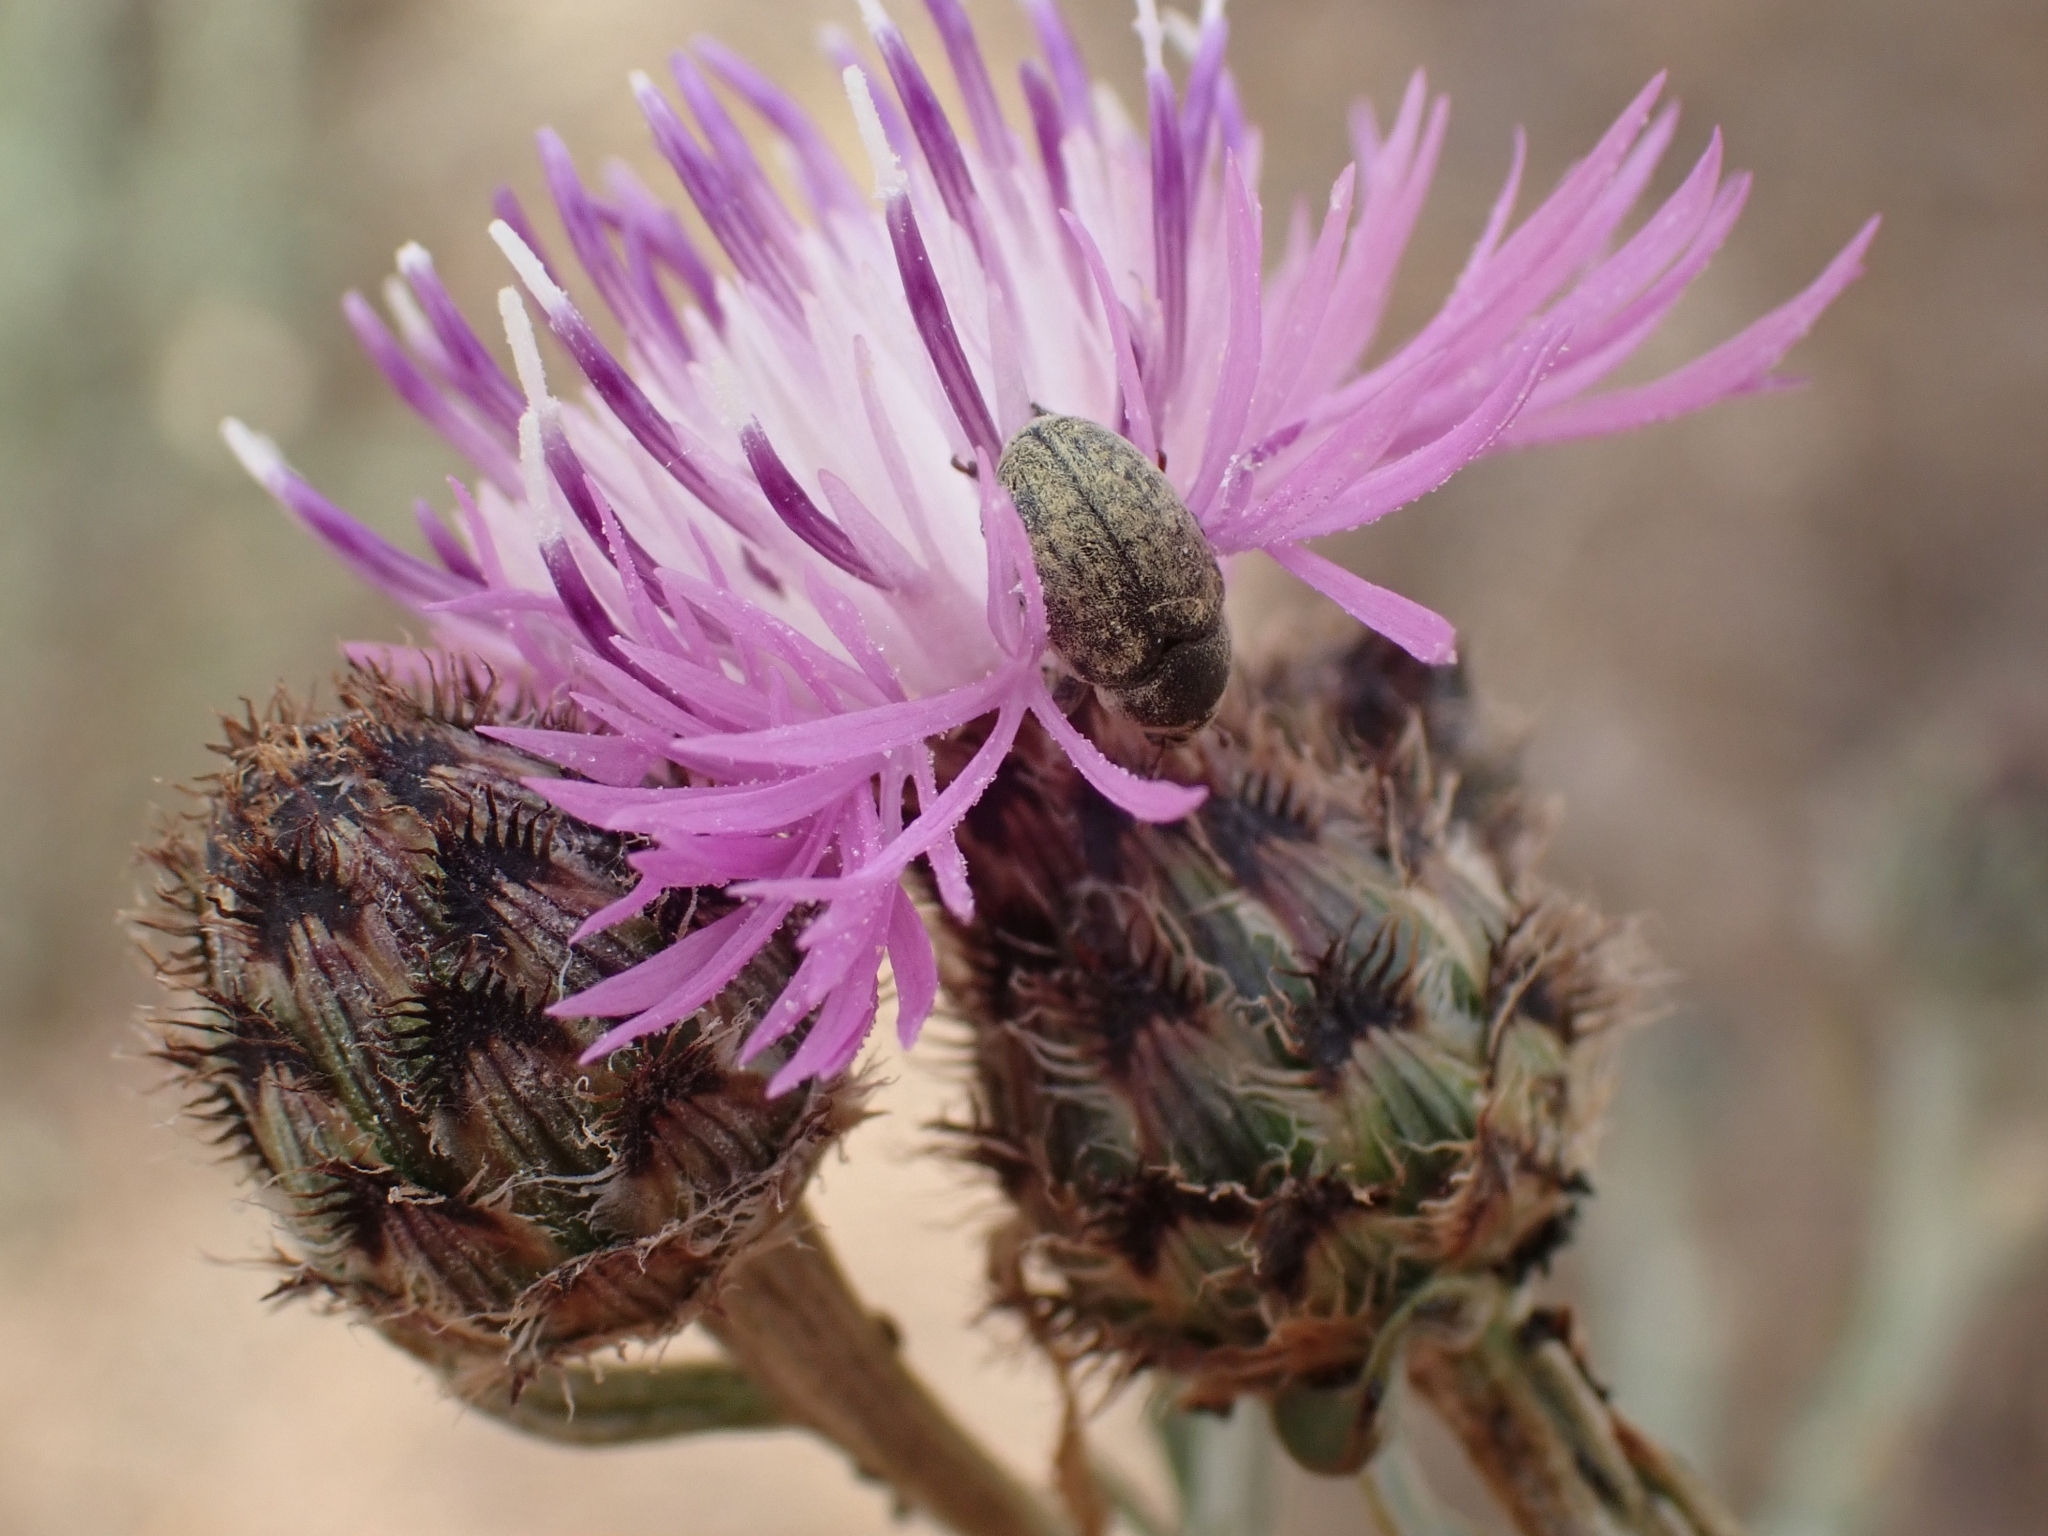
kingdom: Animalia
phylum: Arthropoda
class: Insecta
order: Coleoptera
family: Curculionidae
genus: Larinus
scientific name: Larinus minutus
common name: Weevil
